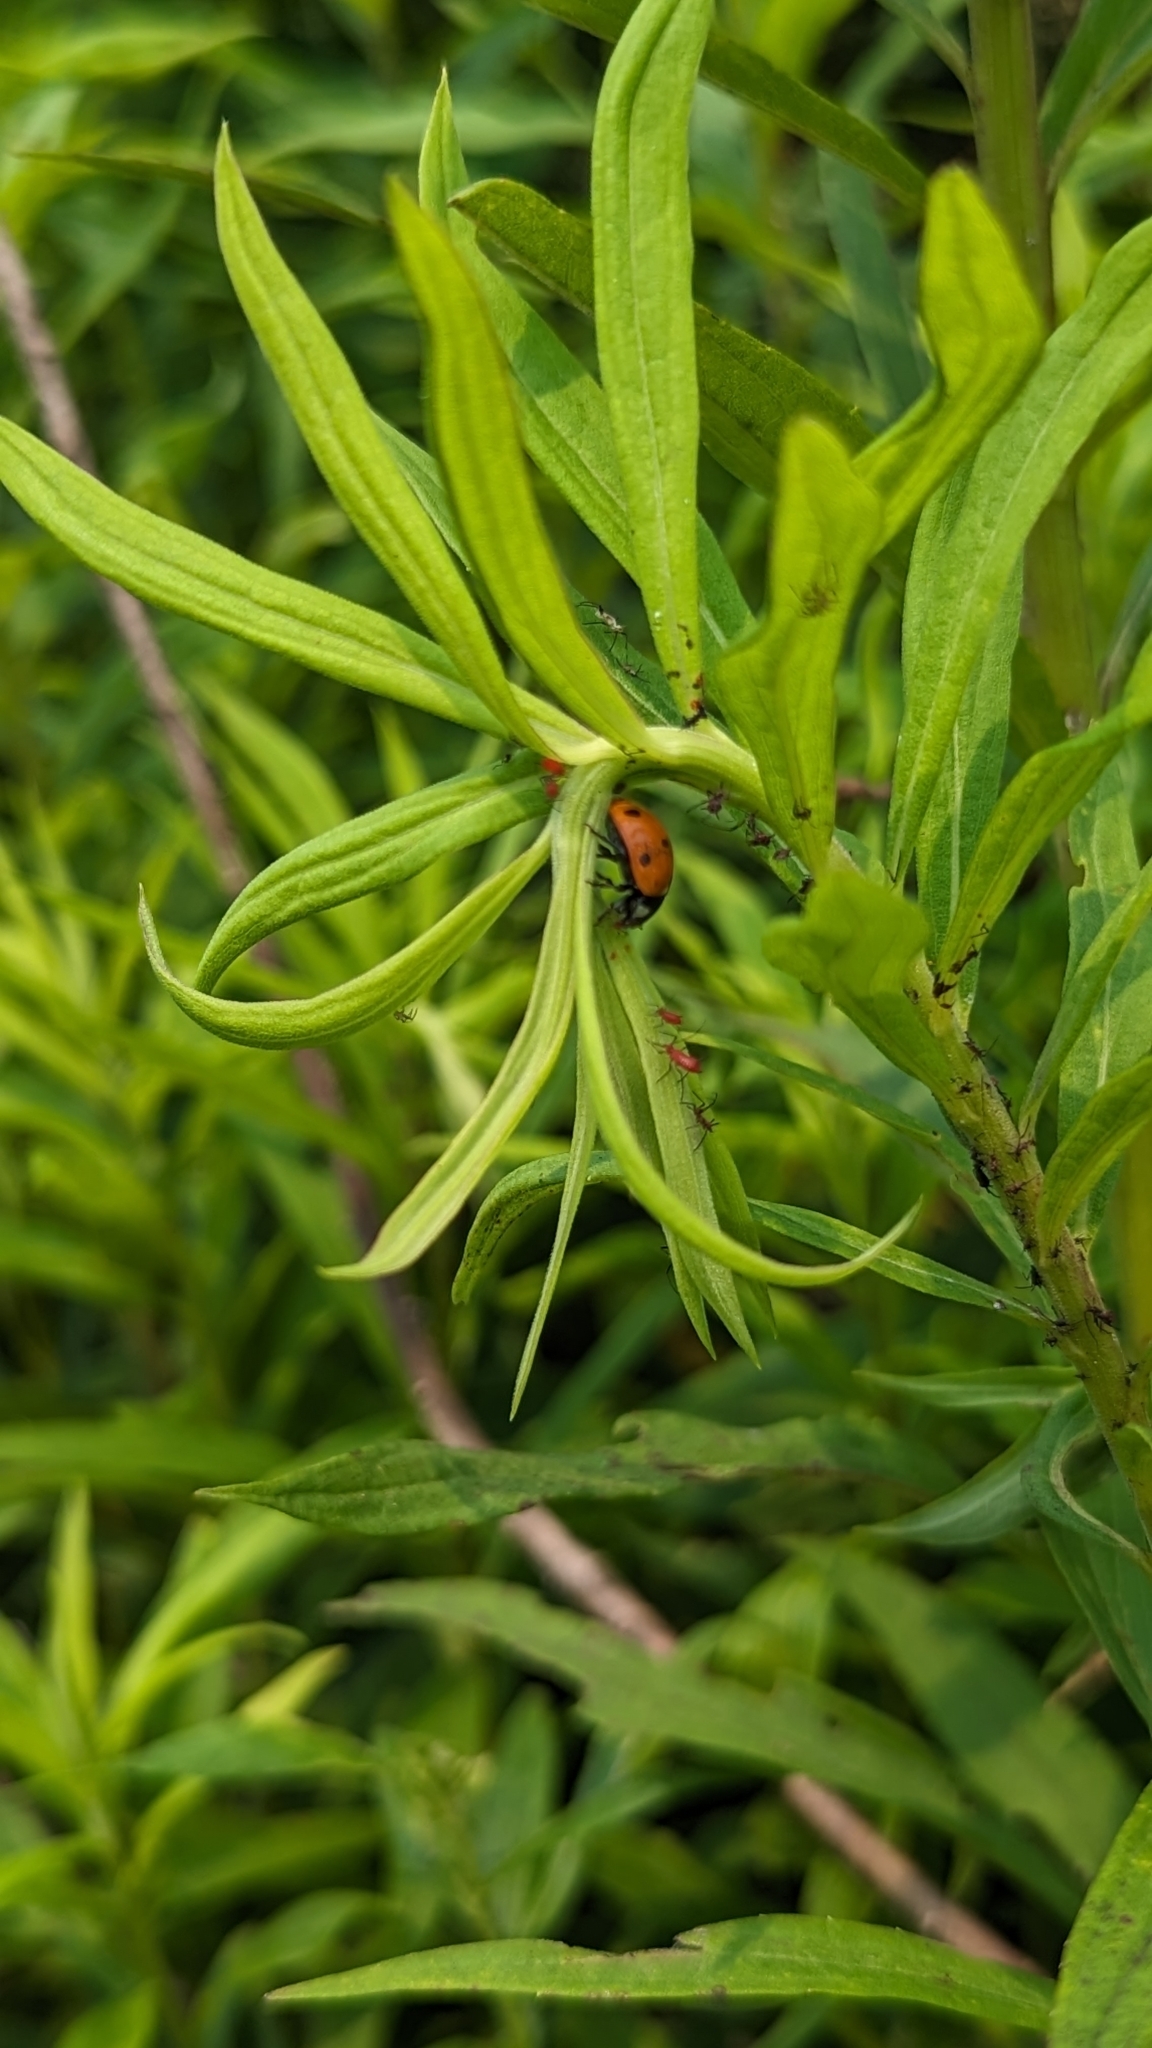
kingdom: Animalia
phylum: Arthropoda
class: Insecta
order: Coleoptera
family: Coccinellidae
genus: Coccinella
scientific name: Coccinella septempunctata
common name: Sevenspotted lady beetle
